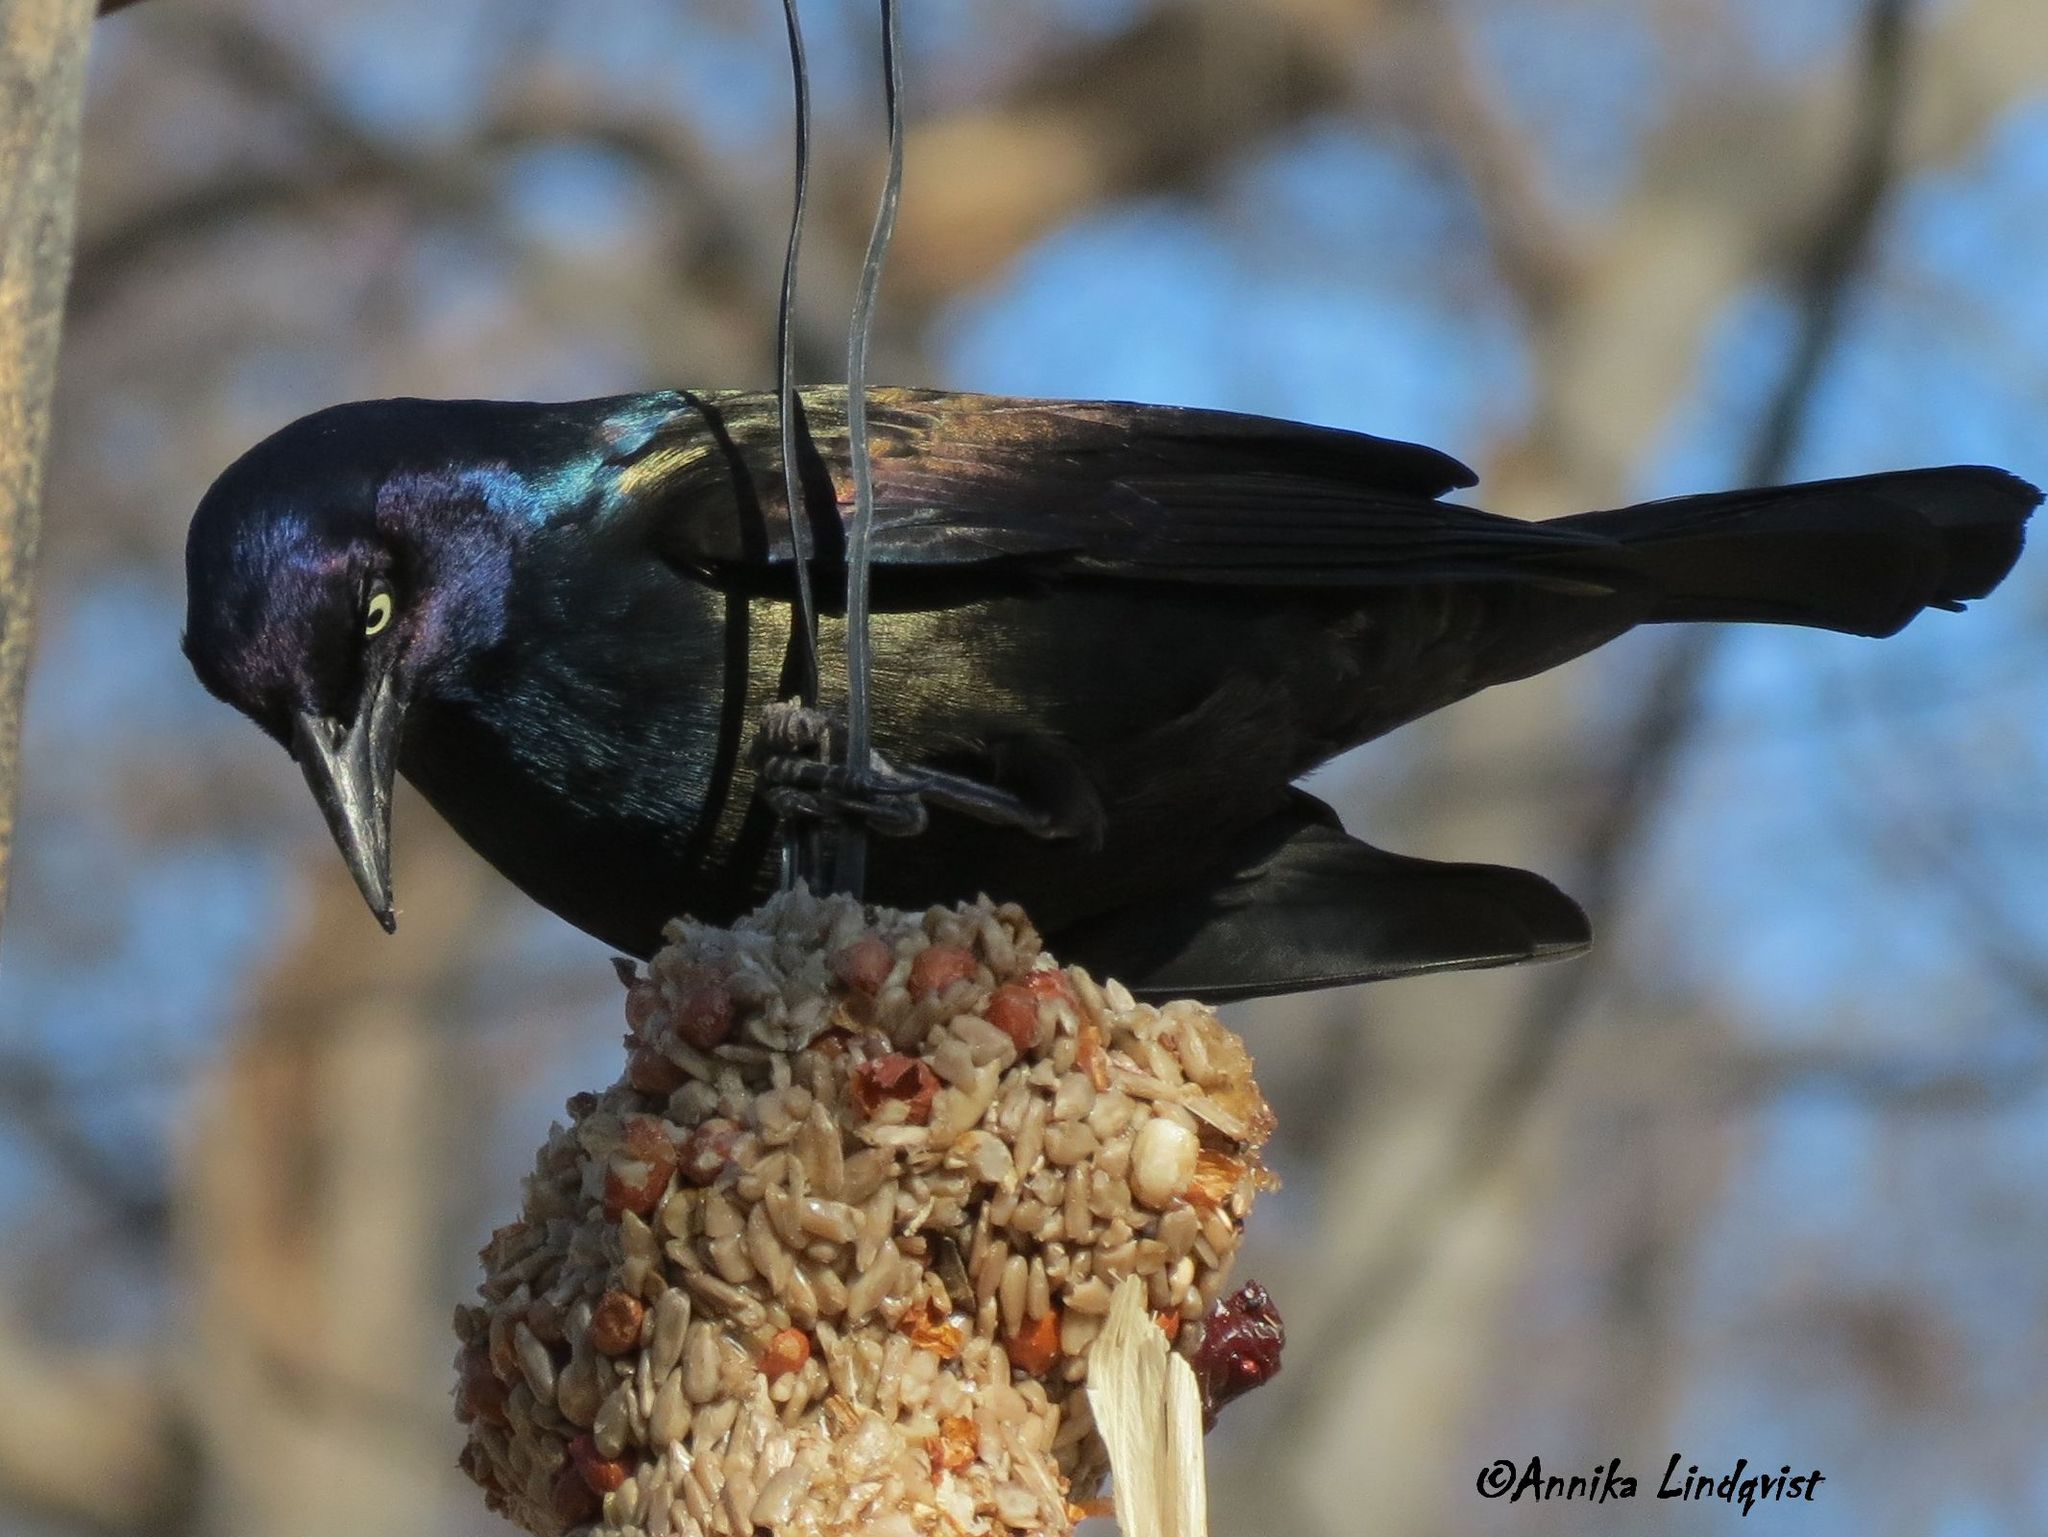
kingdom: Animalia
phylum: Chordata
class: Aves
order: Passeriformes
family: Icteridae
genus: Quiscalus
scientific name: Quiscalus quiscula
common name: Common grackle
